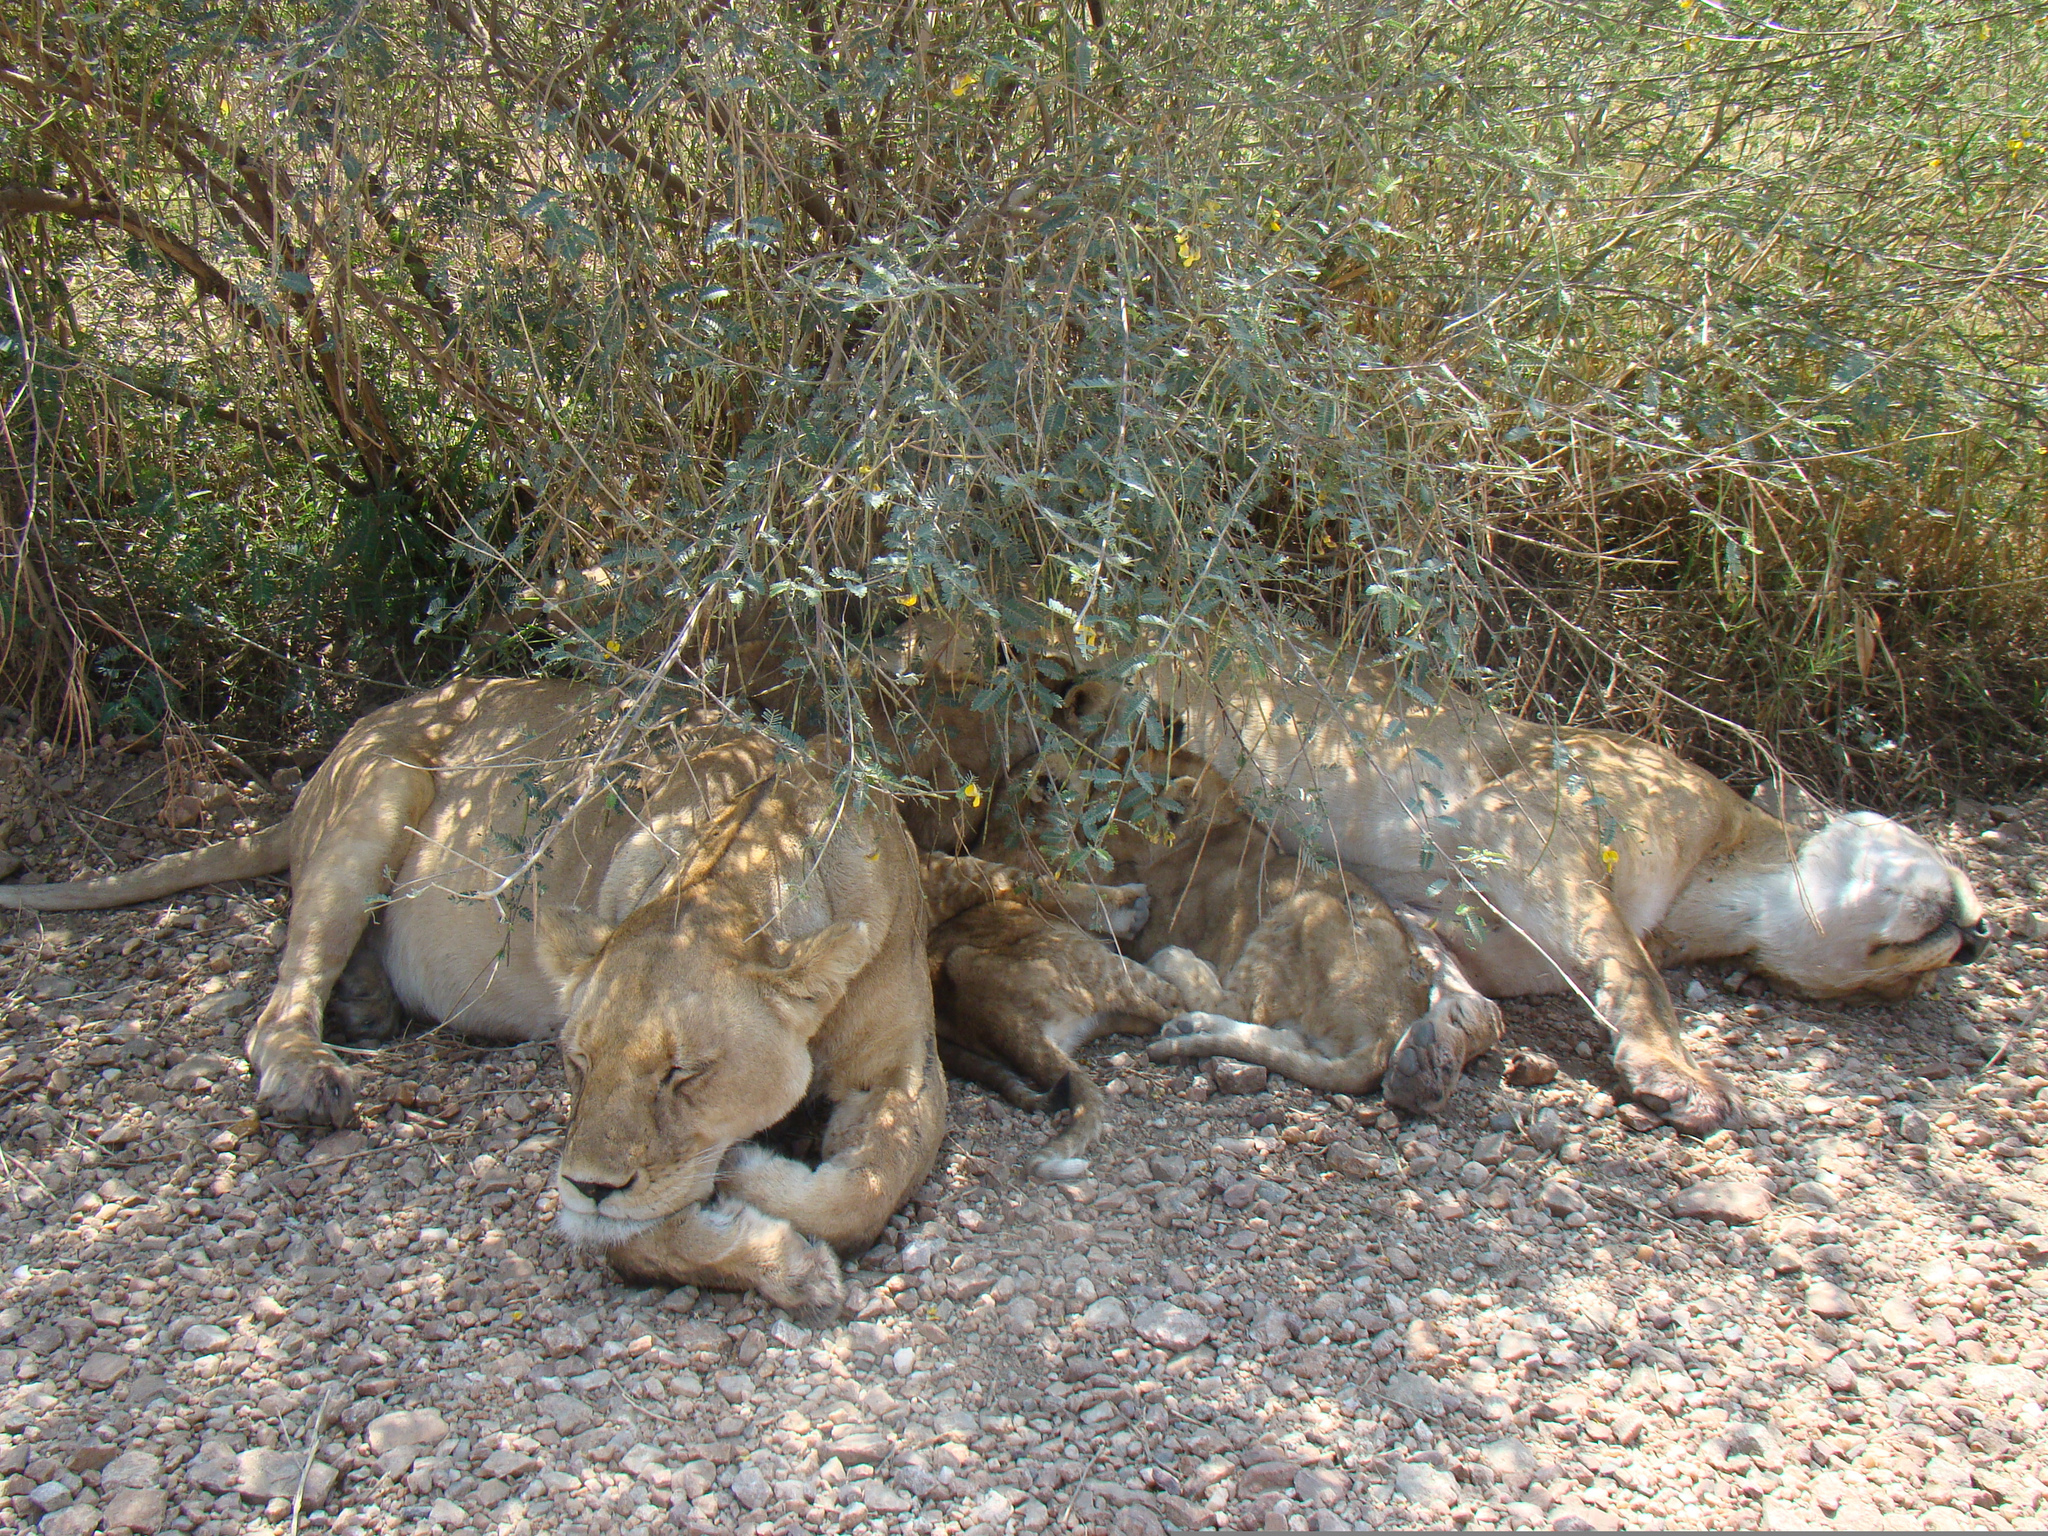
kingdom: Animalia
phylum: Chordata
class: Mammalia
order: Carnivora
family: Felidae
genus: Panthera
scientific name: Panthera leo
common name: Lion
